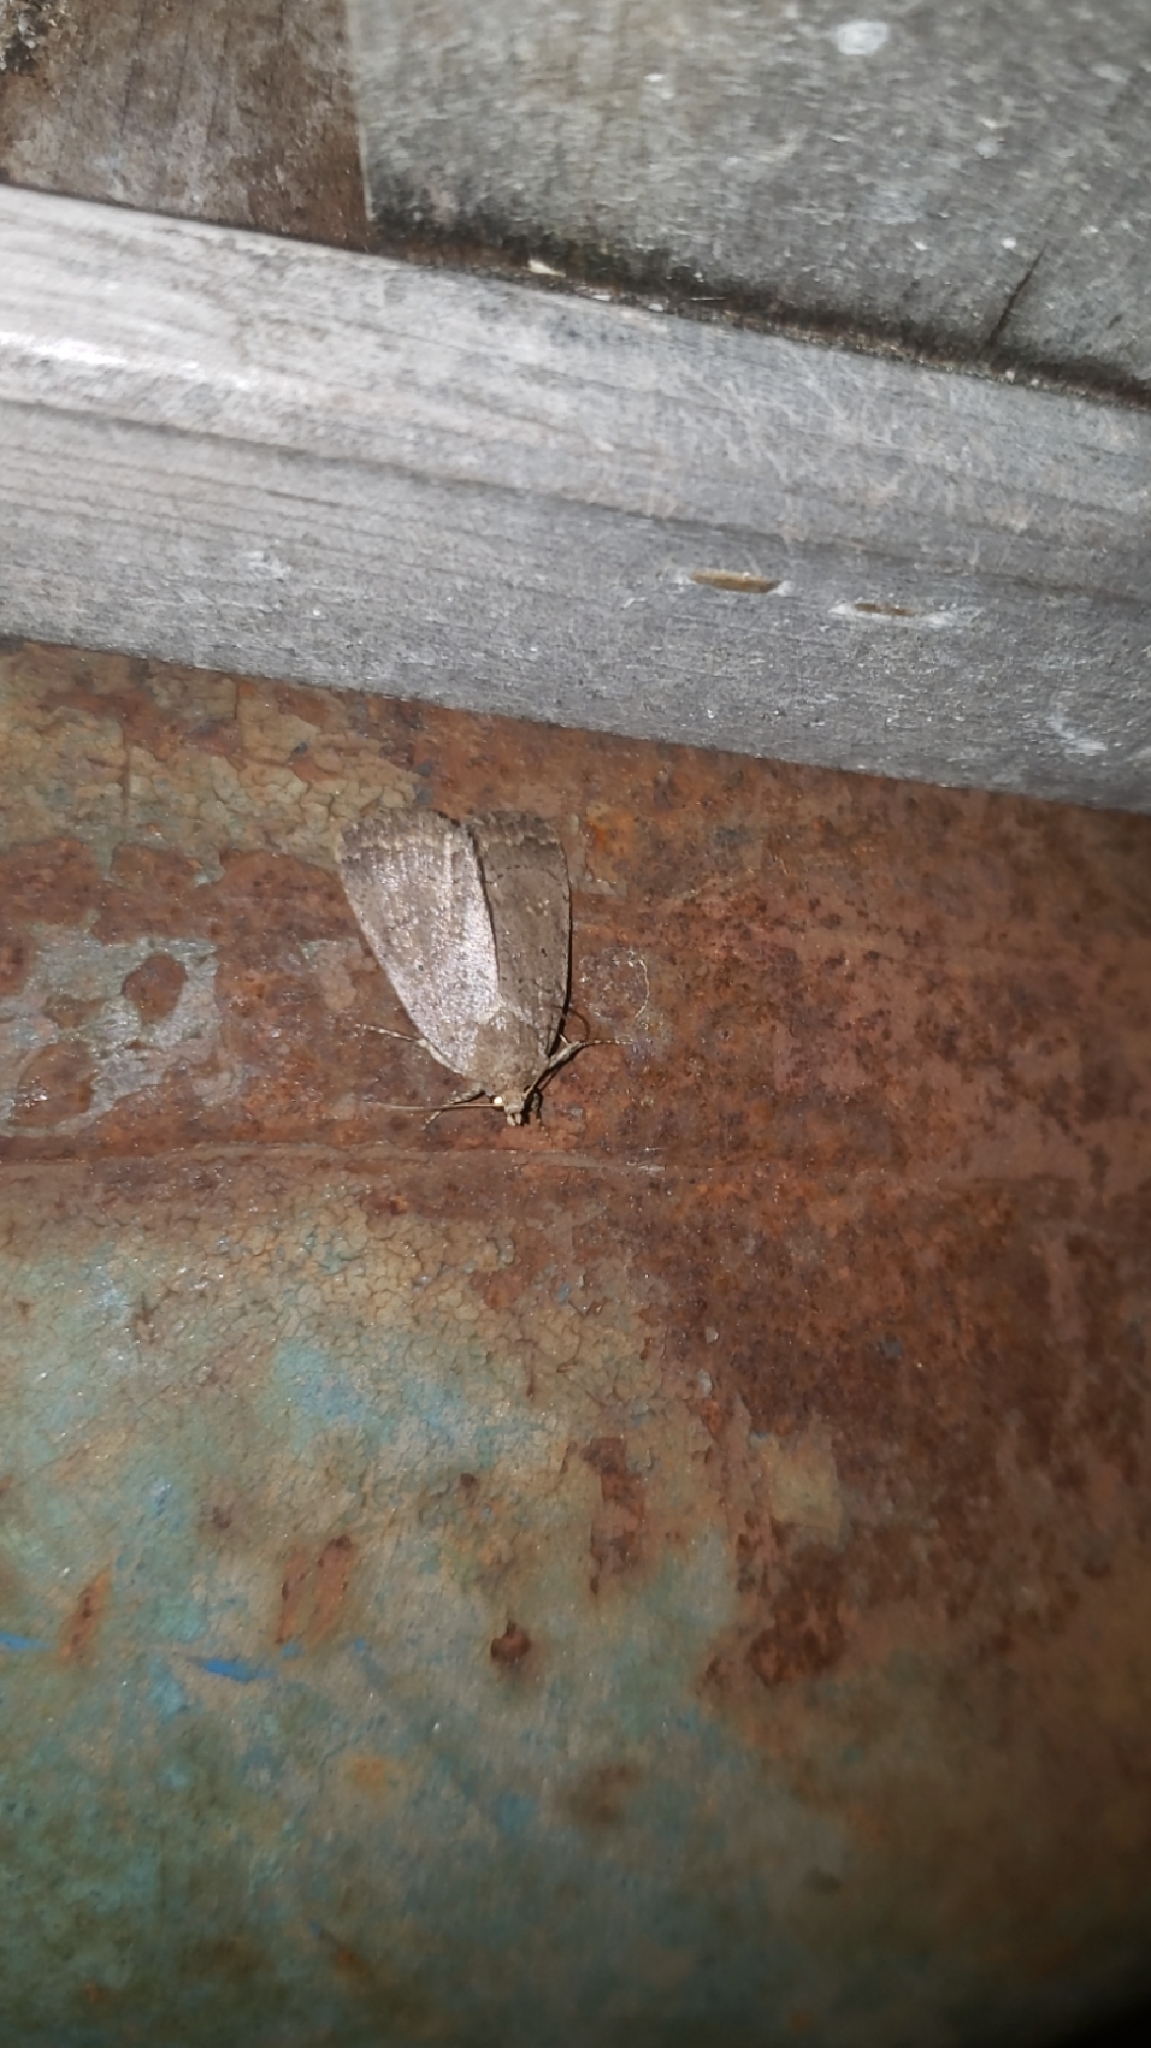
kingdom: Animalia
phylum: Arthropoda
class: Insecta
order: Lepidoptera
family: Noctuidae
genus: Athetis
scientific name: Athetis tarda
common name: Slowpoke moth
